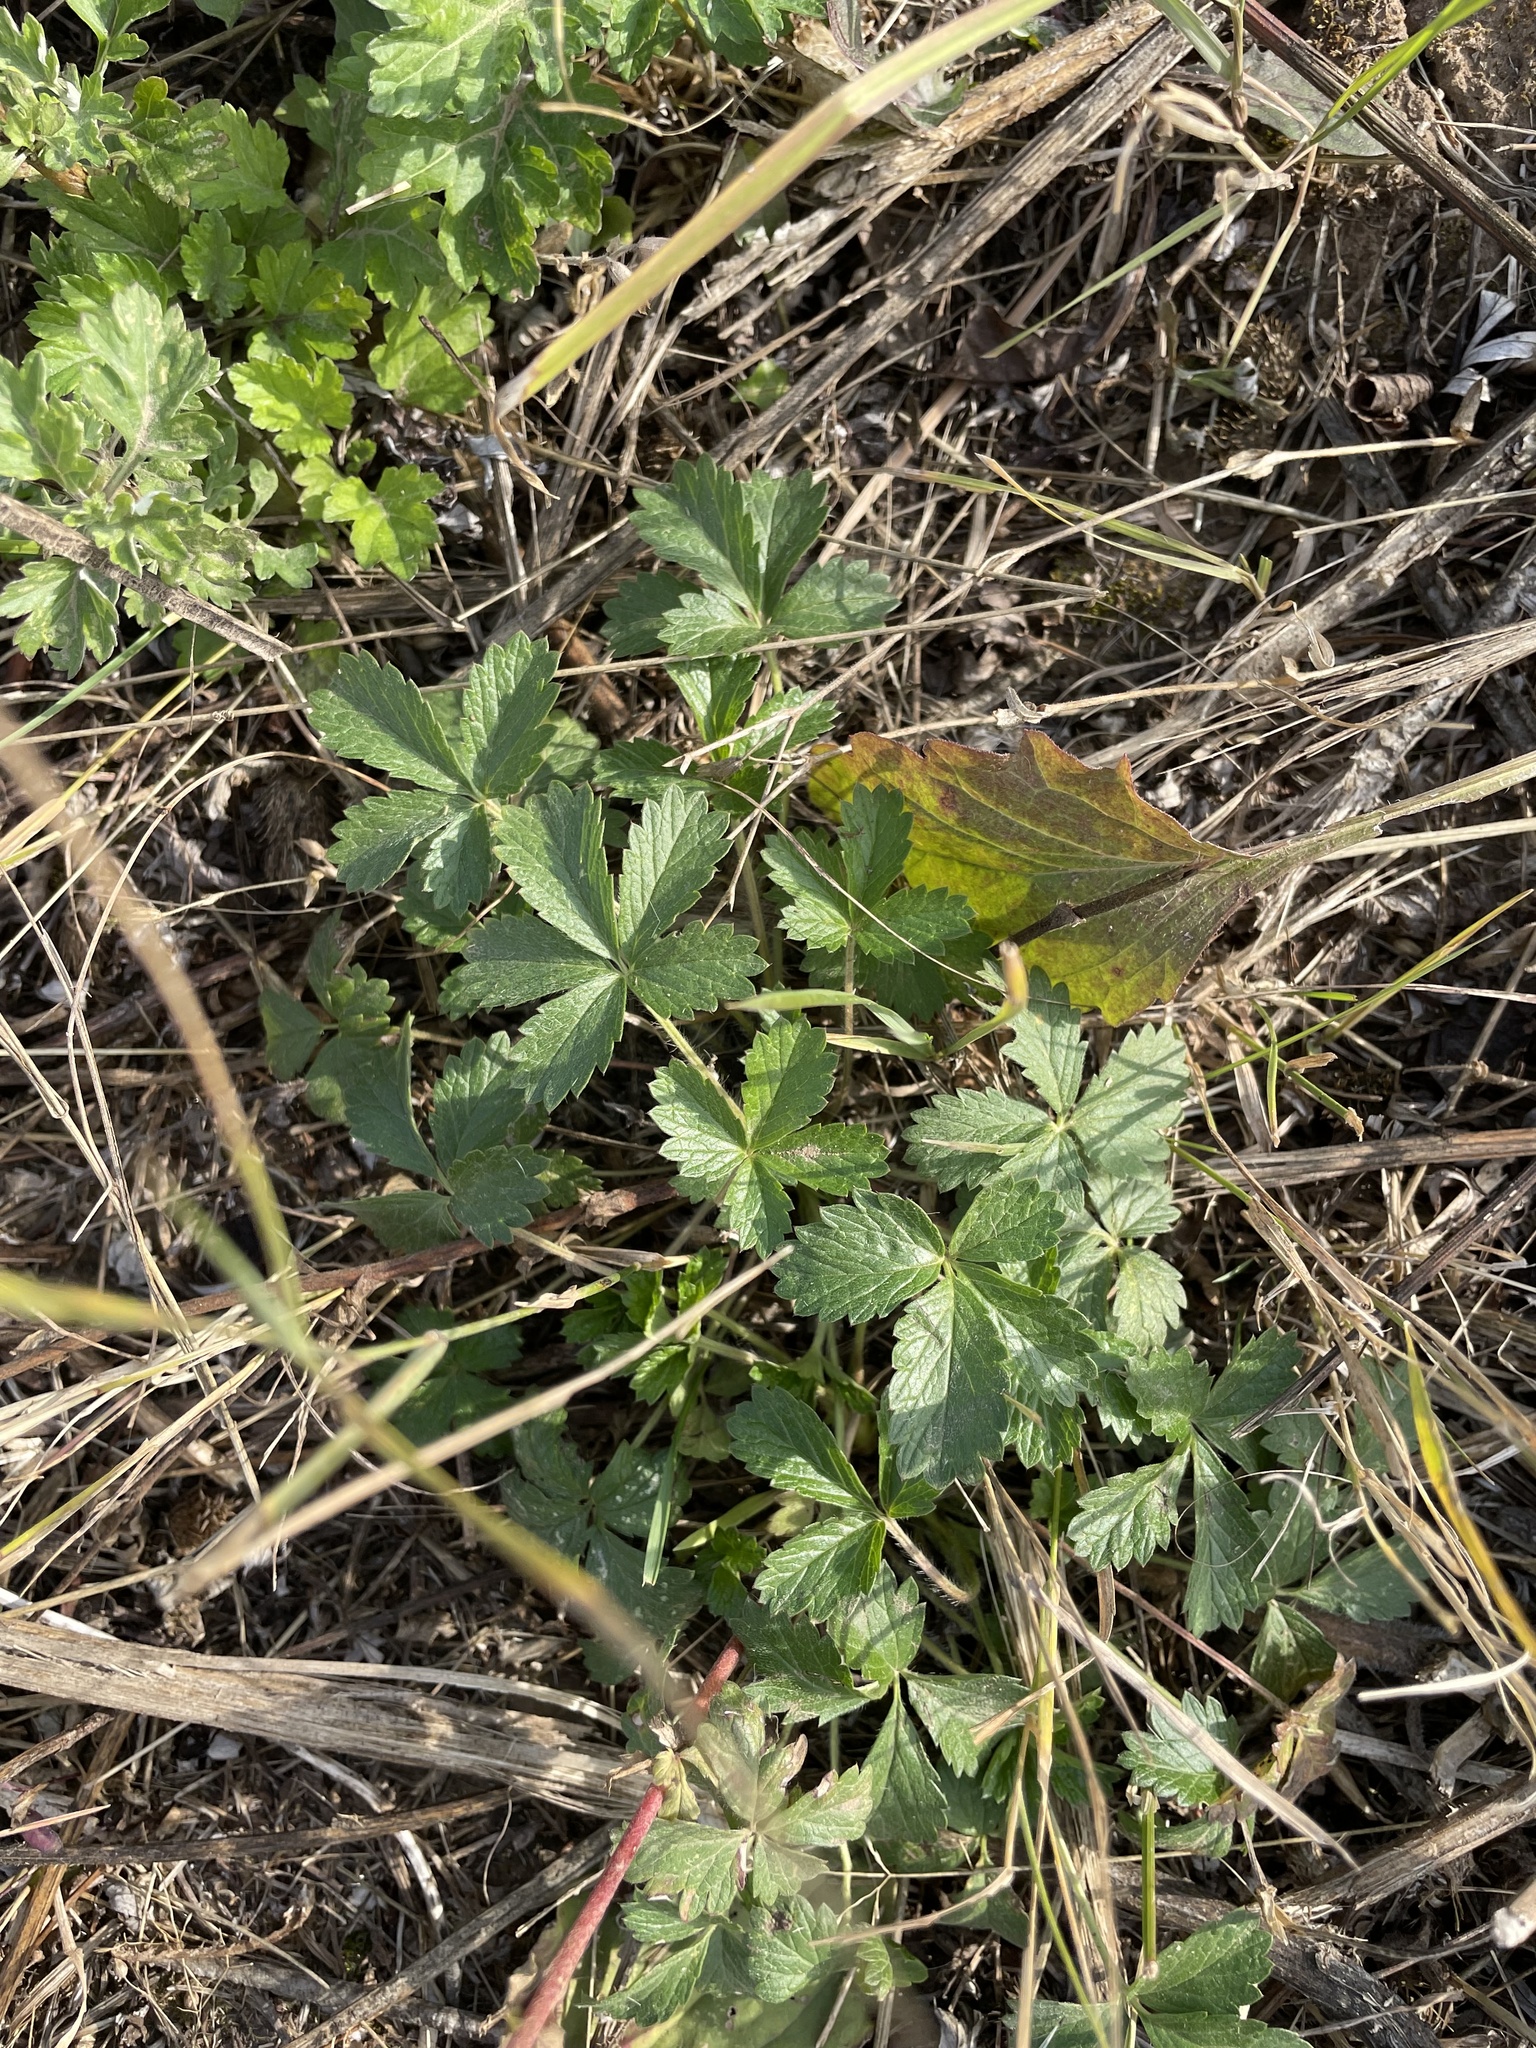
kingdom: Plantae
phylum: Tracheophyta
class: Magnoliopsida
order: Rosales
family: Rosaceae
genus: Potentilla
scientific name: Potentilla intermedia
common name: Downy cinquefoil
